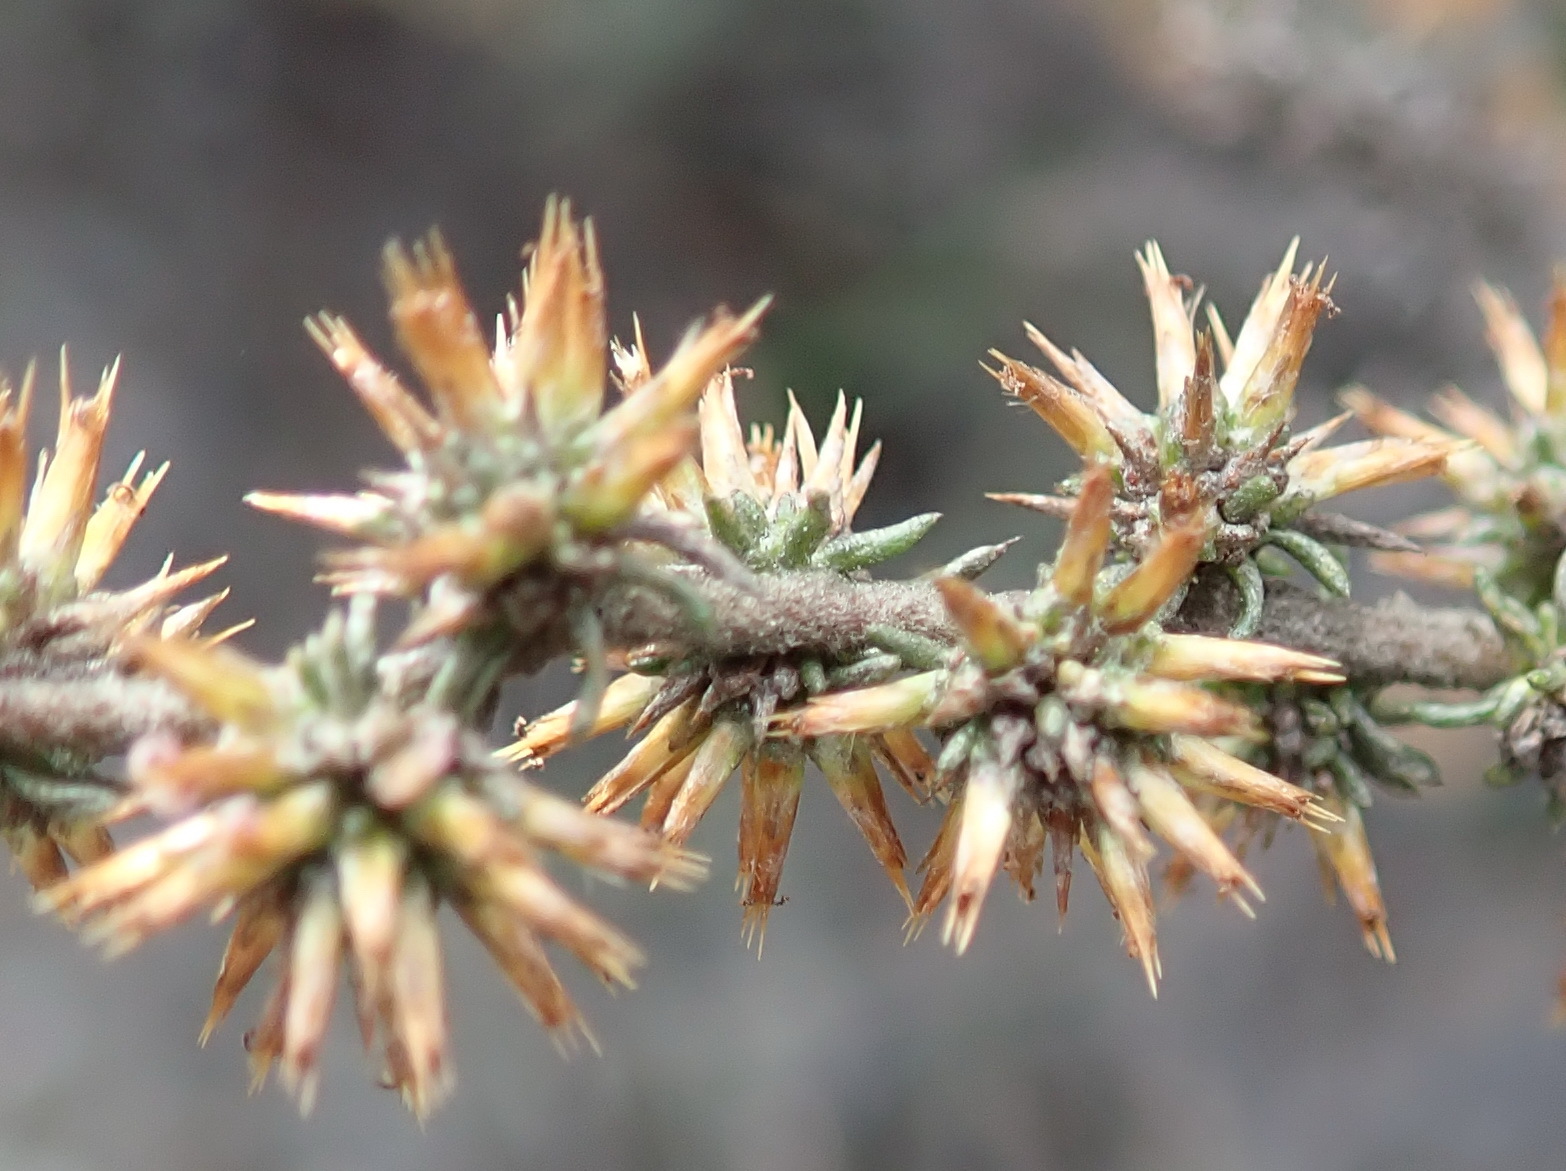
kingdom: Plantae
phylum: Tracheophyta
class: Magnoliopsida
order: Asterales
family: Asteraceae
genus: Seriphium
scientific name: Seriphium plumosum
